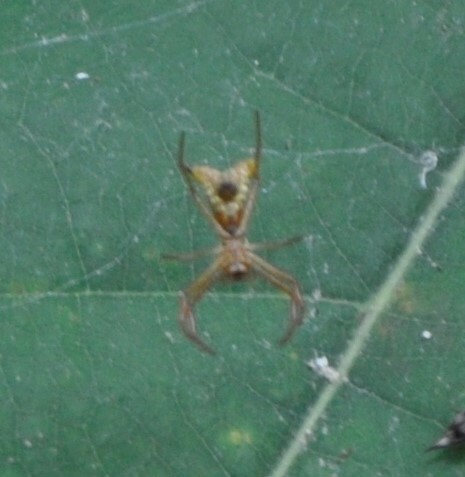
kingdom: Animalia
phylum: Arthropoda
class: Arachnida
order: Araneae
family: Araneidae
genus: Micrathena
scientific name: Micrathena sagittata
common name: Orb weavers
